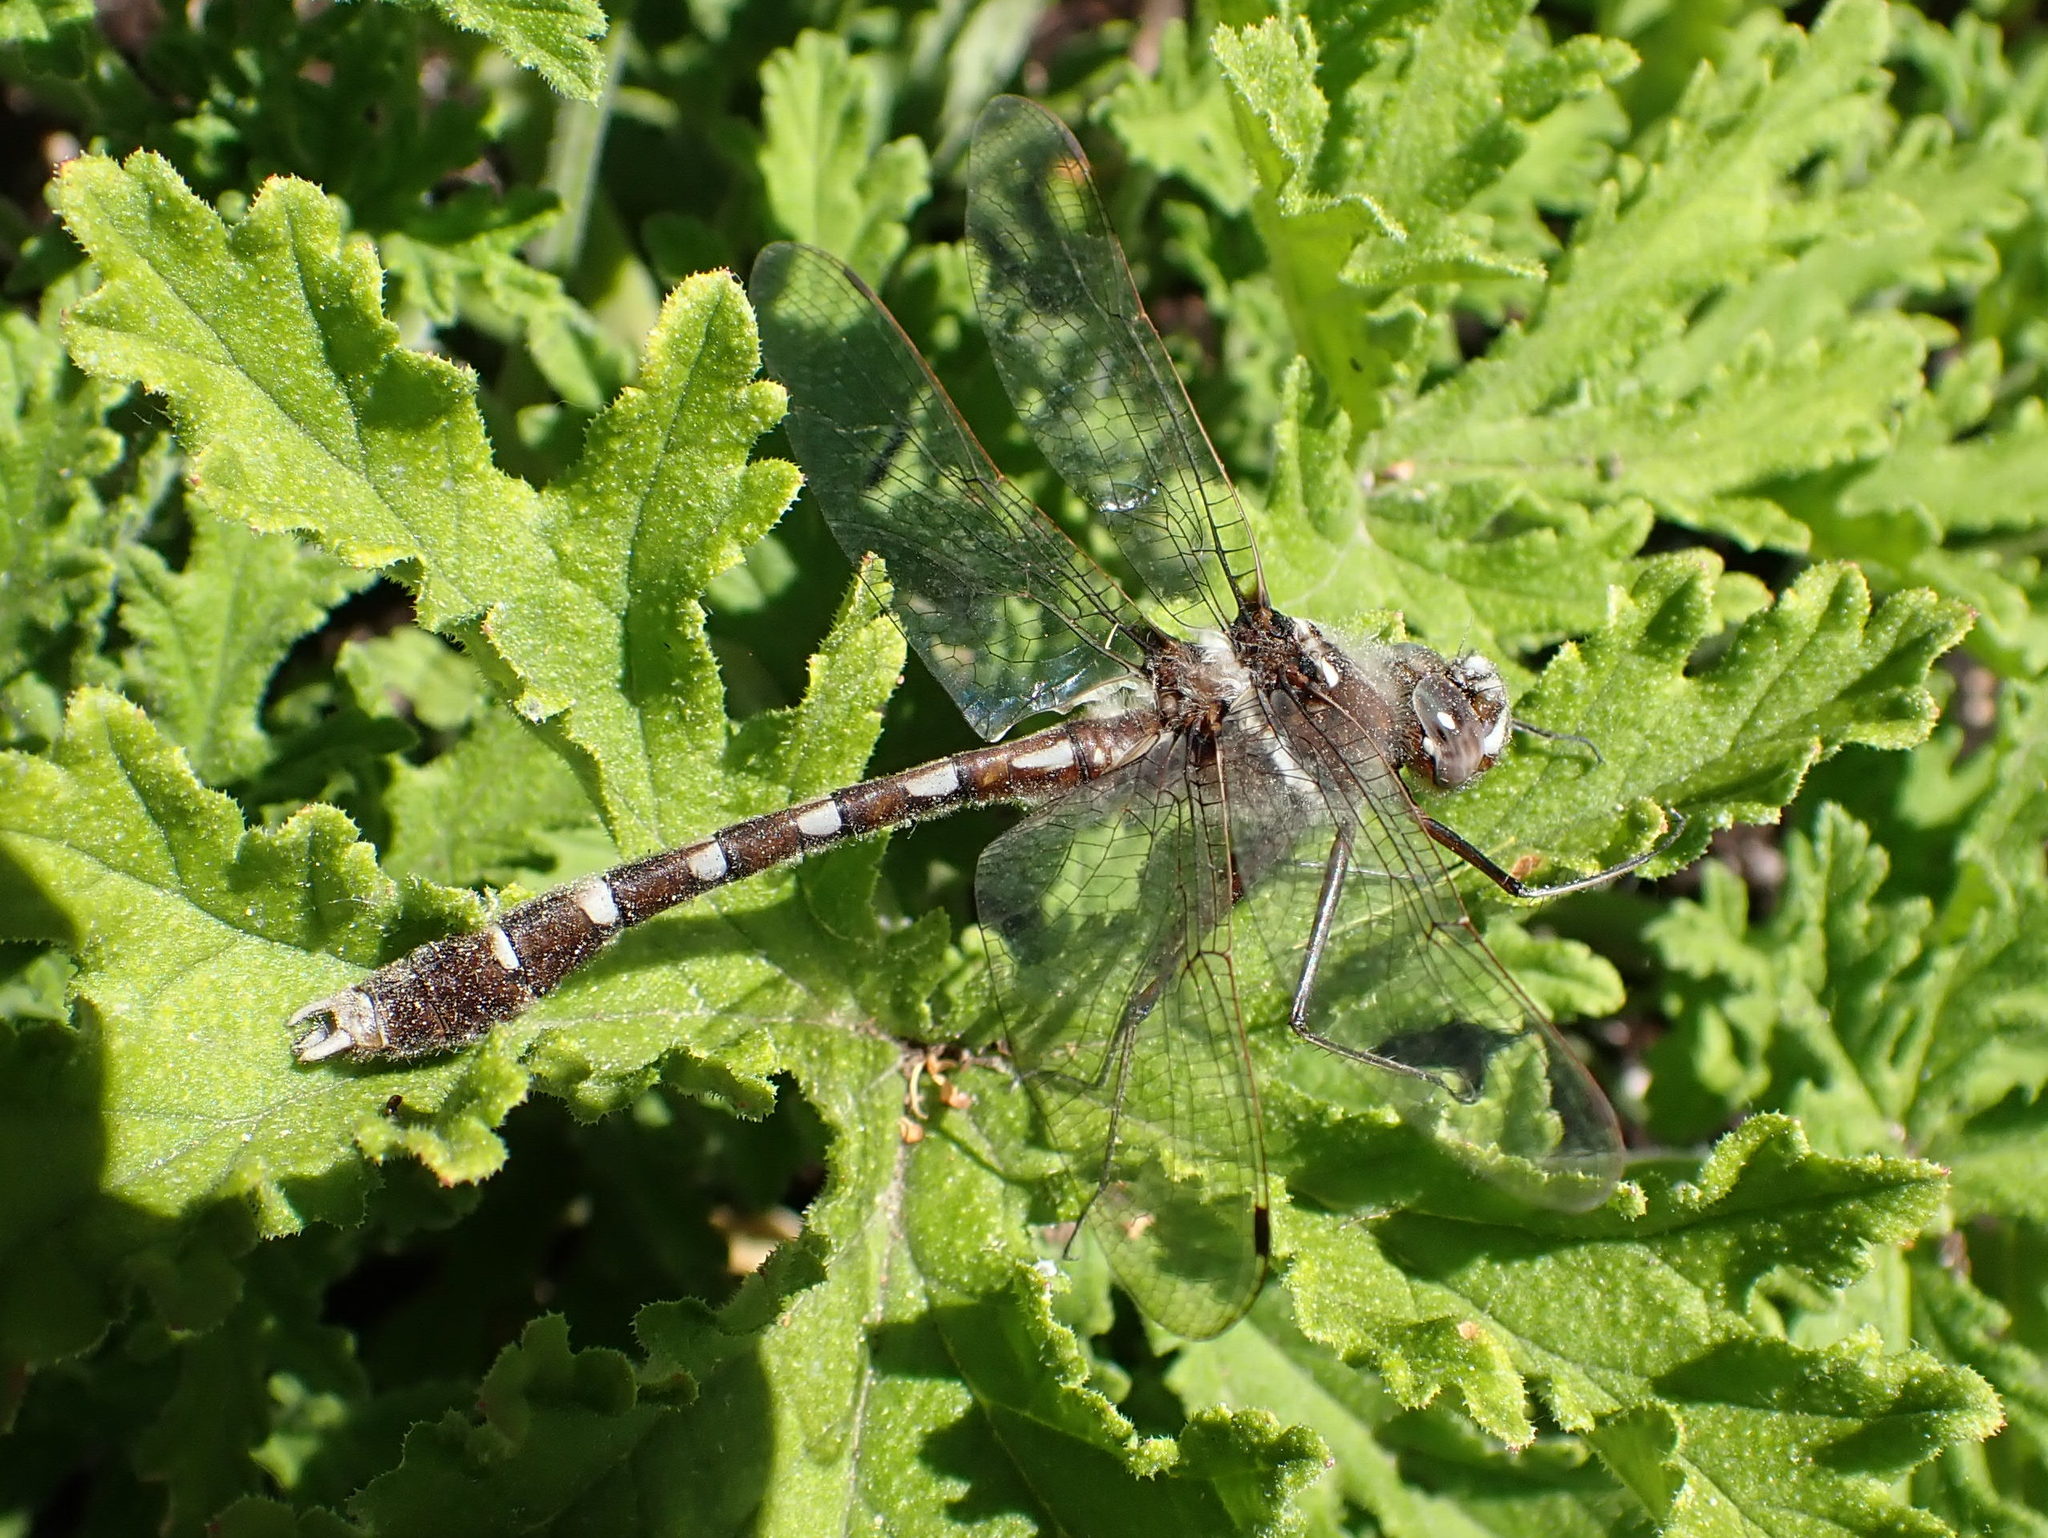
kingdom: Animalia
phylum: Arthropoda
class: Insecta
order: Odonata
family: Macromiidae
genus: Didymops
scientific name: Didymops transversa
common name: Stream cruiser
